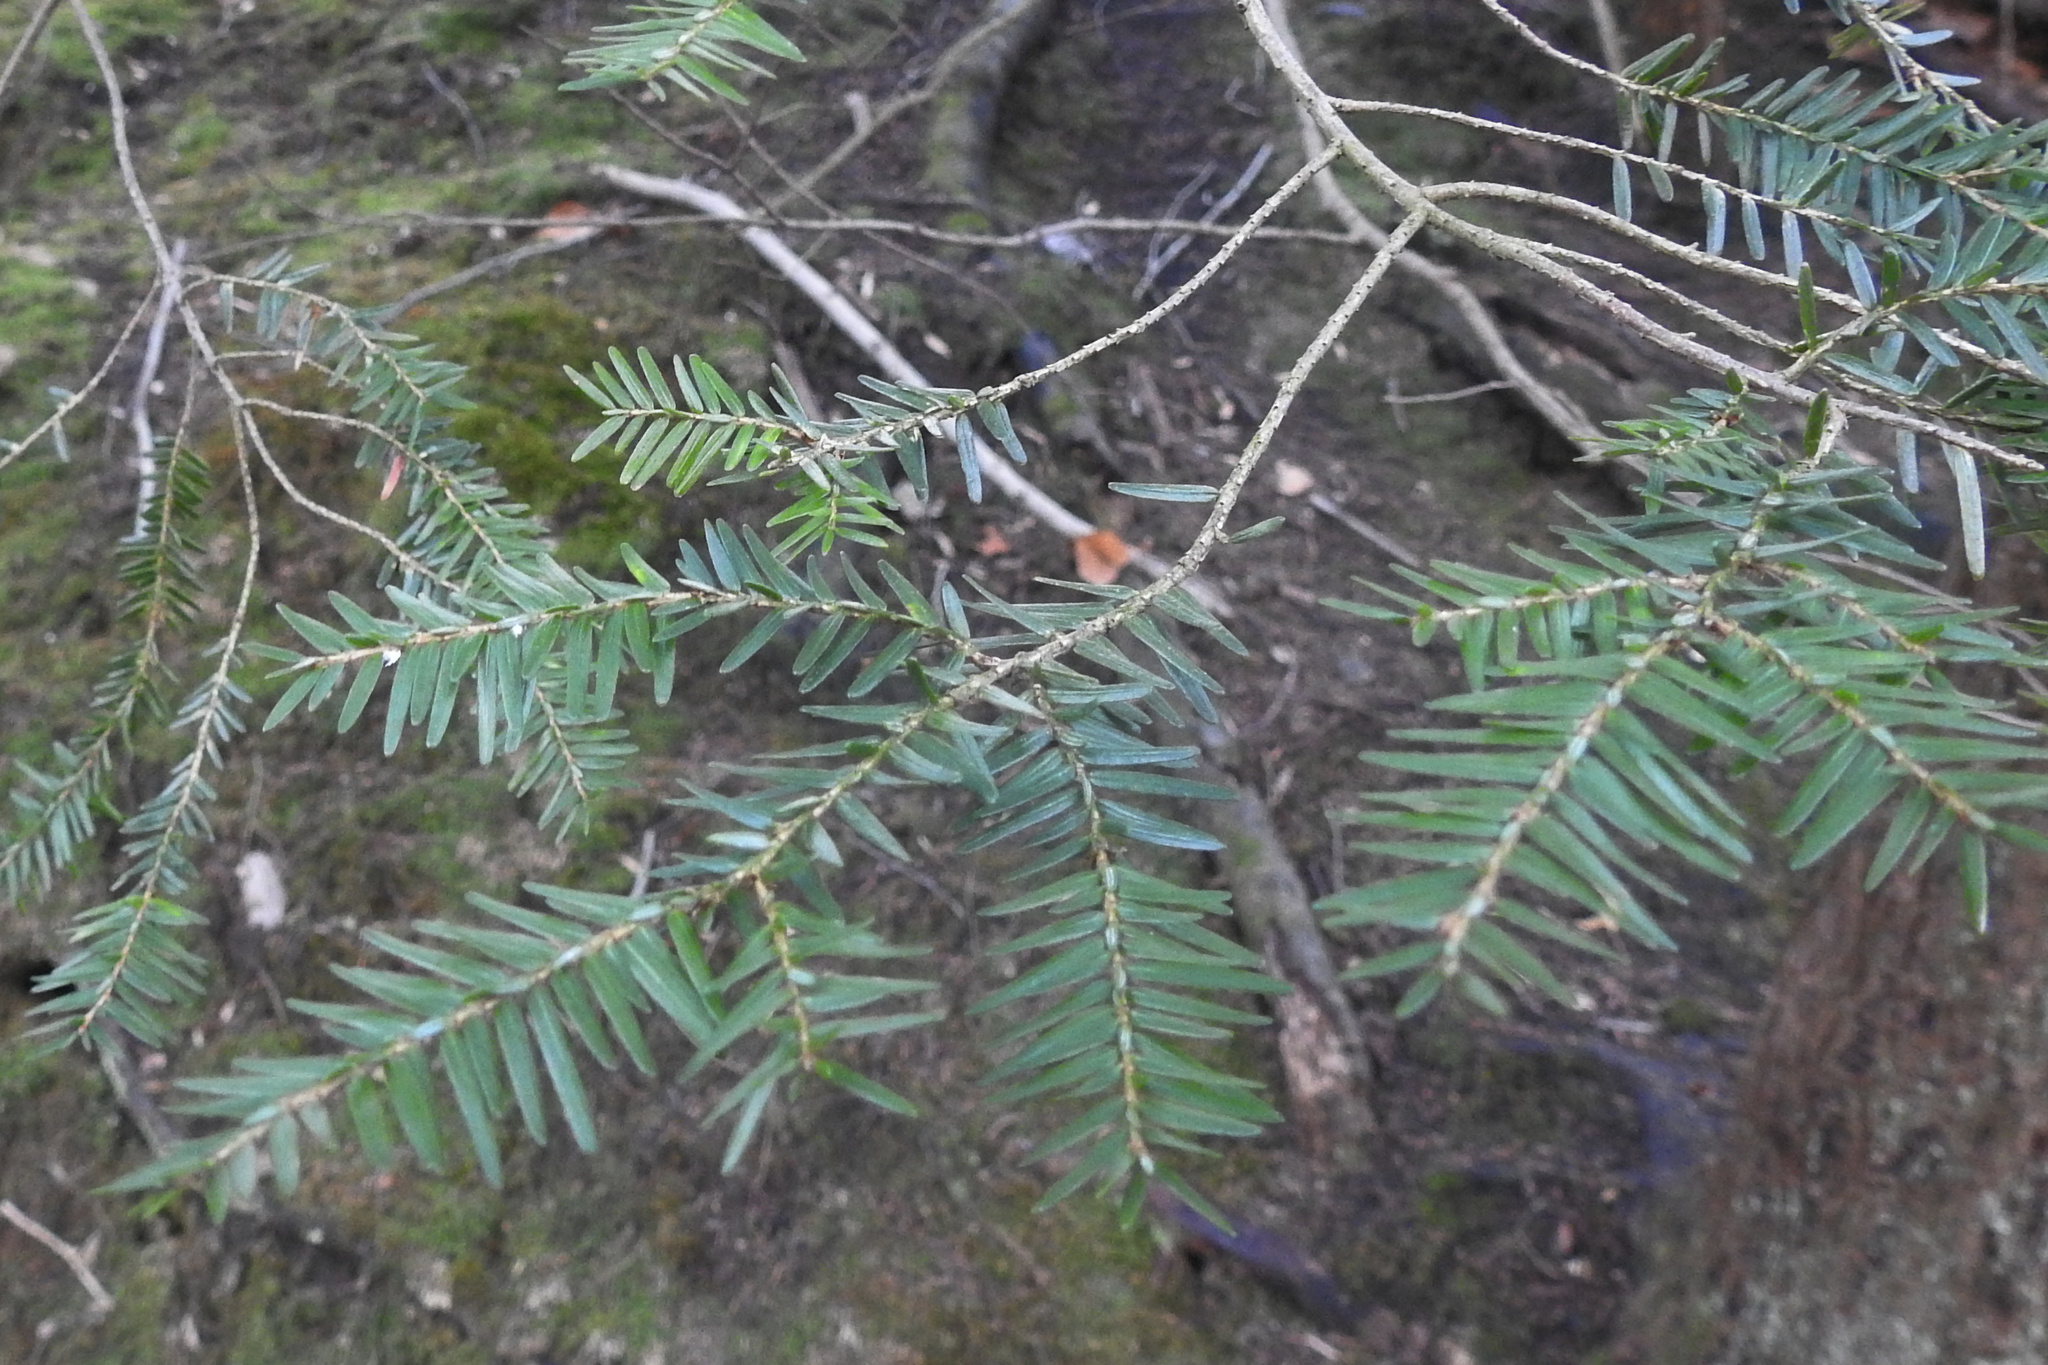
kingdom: Plantae
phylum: Tracheophyta
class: Pinopsida
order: Pinales
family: Pinaceae
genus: Tsuga
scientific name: Tsuga canadensis
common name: Eastern hemlock
